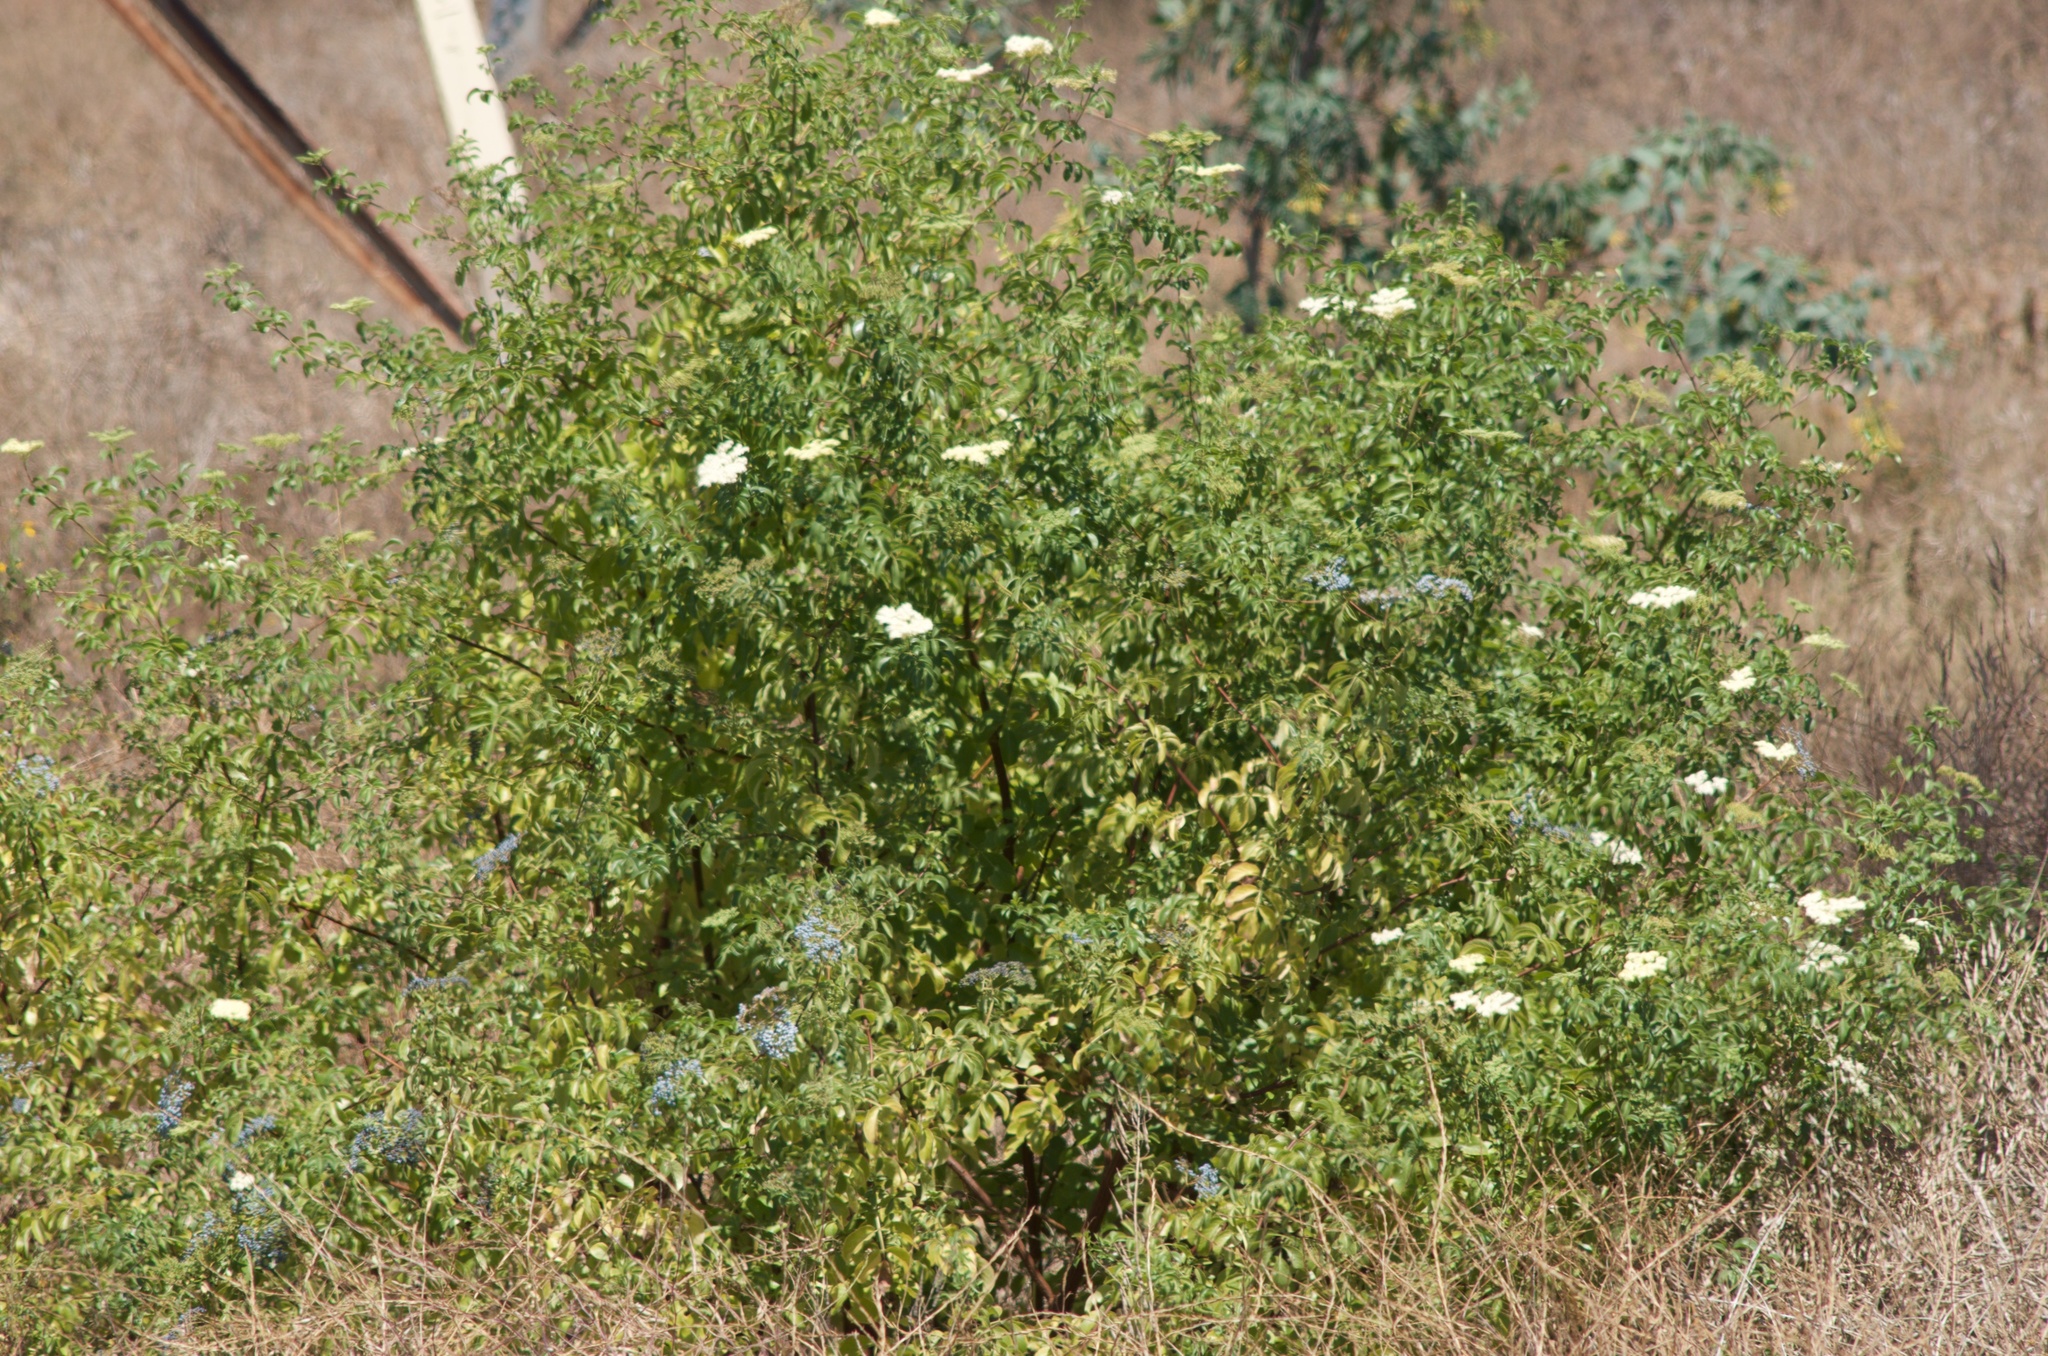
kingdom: Plantae
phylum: Tracheophyta
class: Magnoliopsida
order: Dipsacales
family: Viburnaceae
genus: Sambucus
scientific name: Sambucus cerulea
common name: Blue elder
